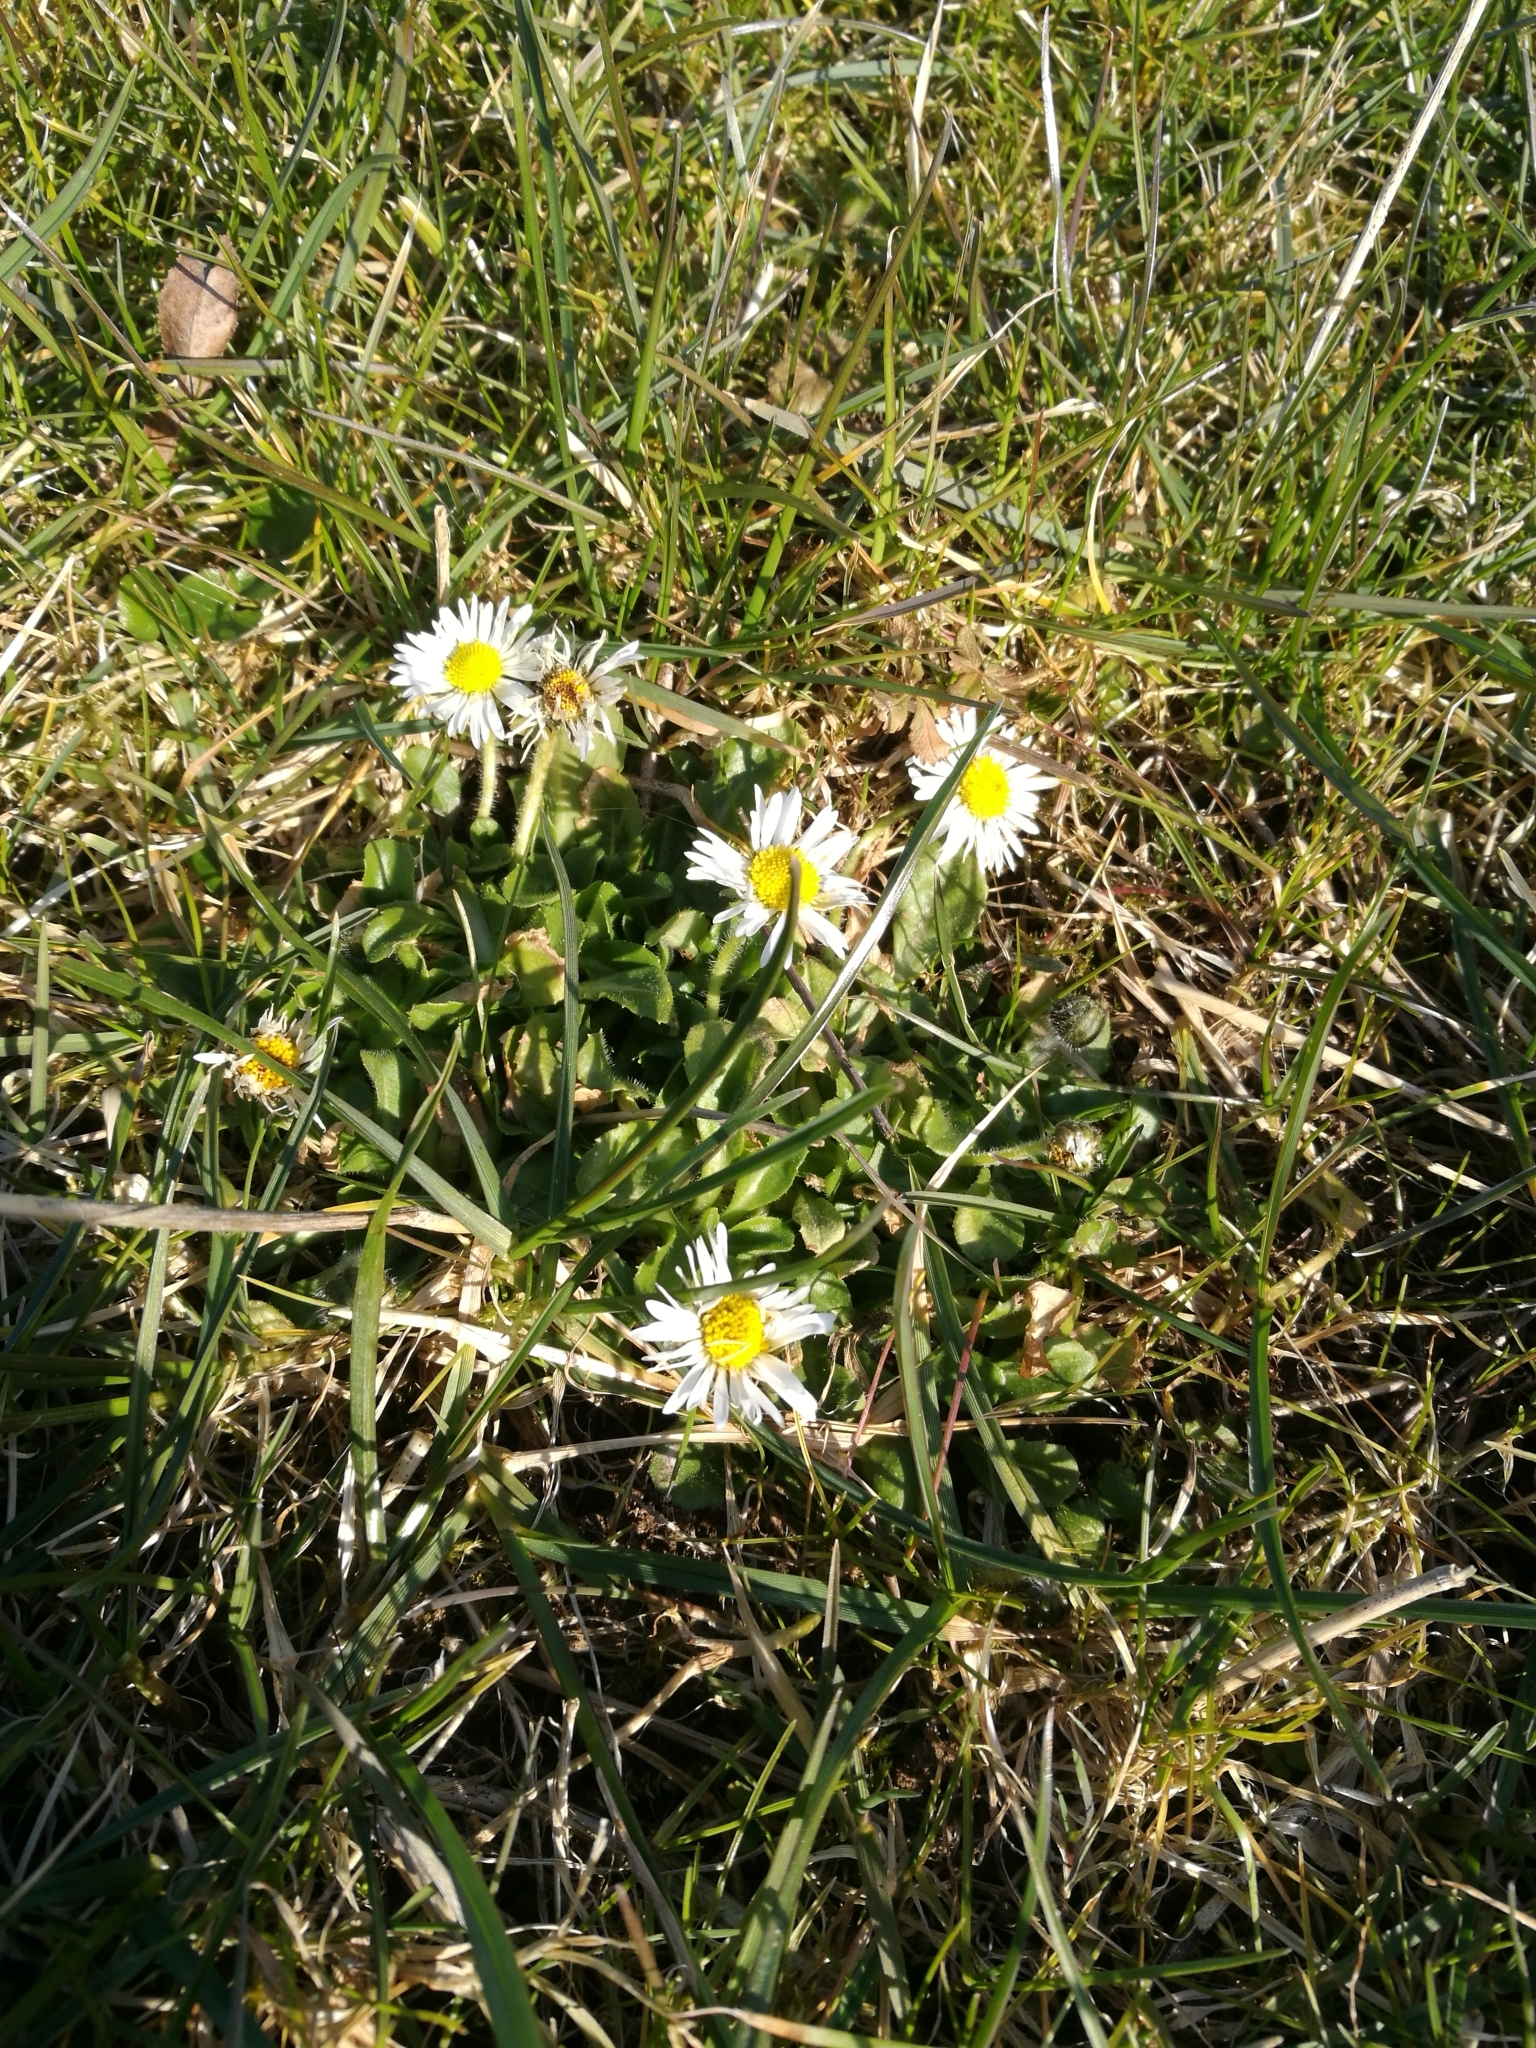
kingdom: Plantae
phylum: Tracheophyta
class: Magnoliopsida
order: Asterales
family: Asteraceae
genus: Bellis
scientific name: Bellis perennis
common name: Lawndaisy
